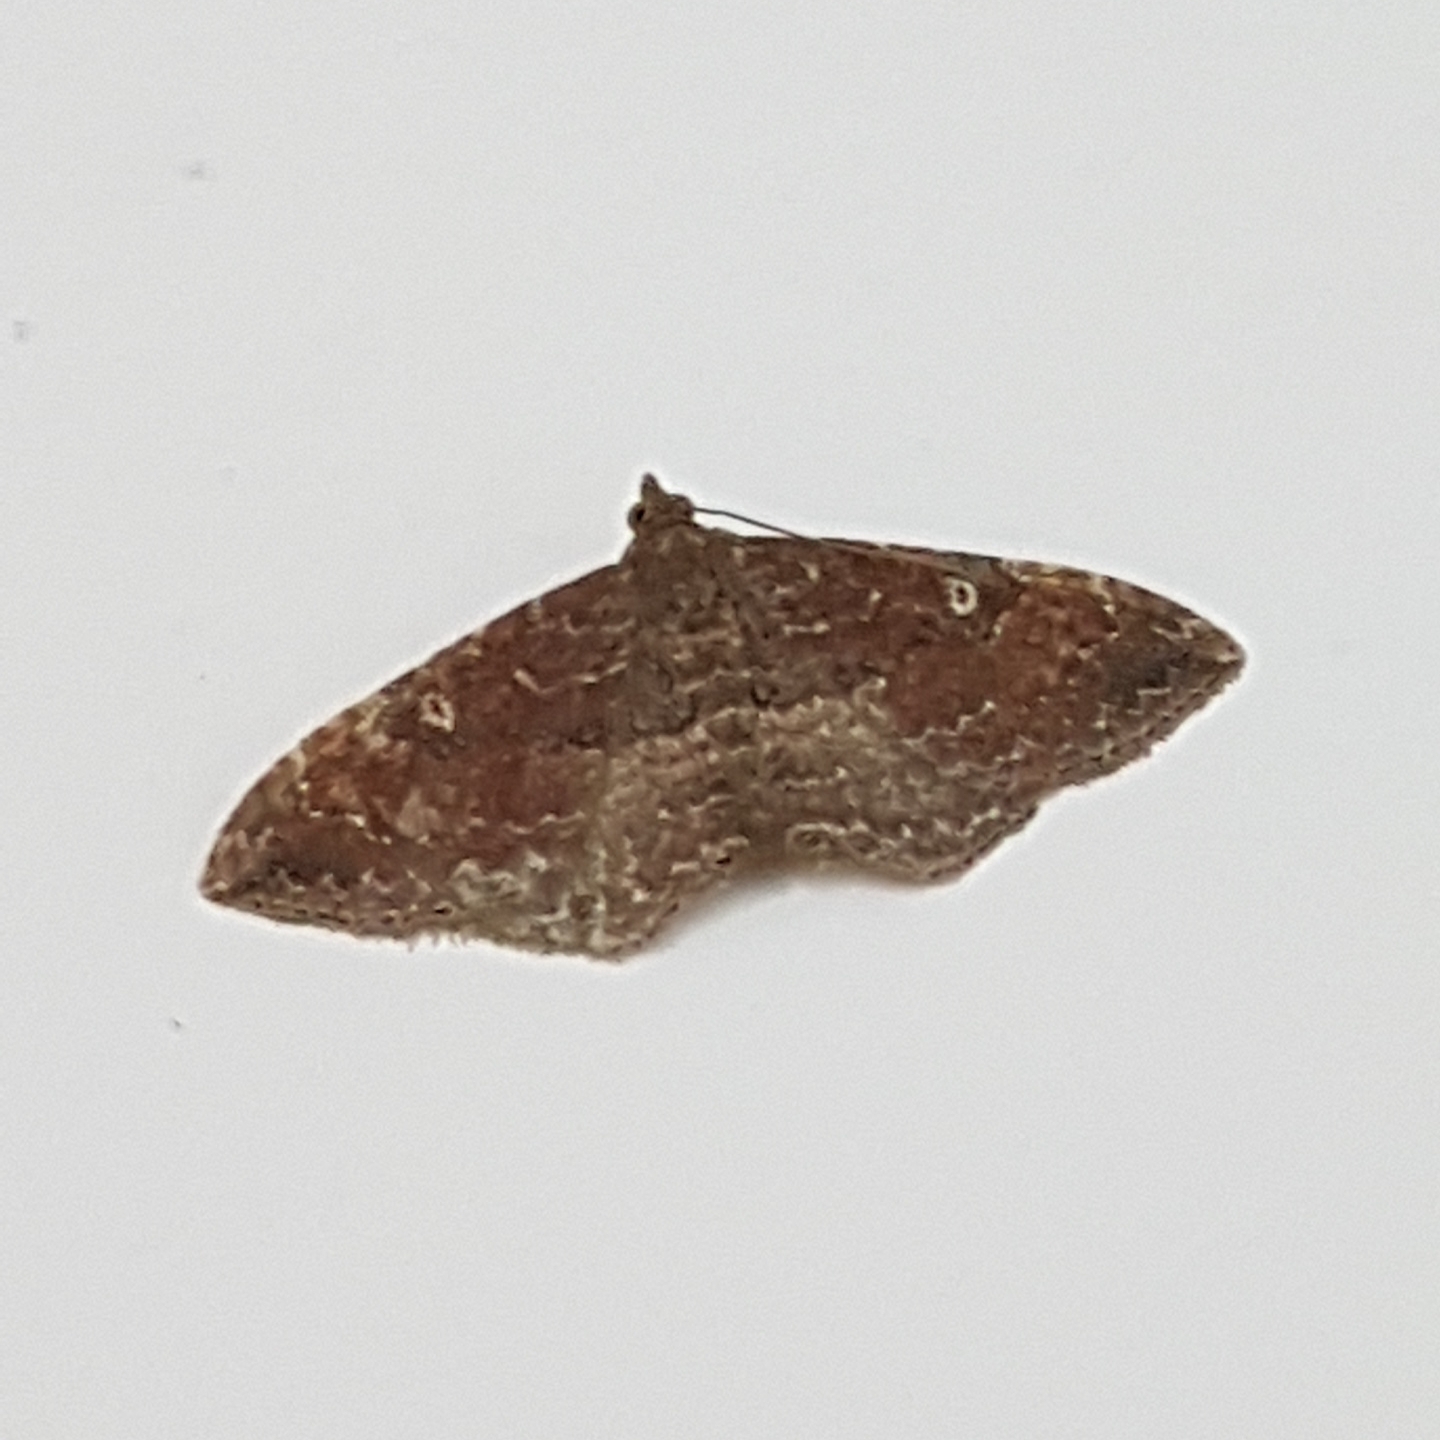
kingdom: Animalia
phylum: Arthropoda
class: Insecta
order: Lepidoptera
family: Geometridae
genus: Orthonama
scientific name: Orthonama obstipata
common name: The gem
